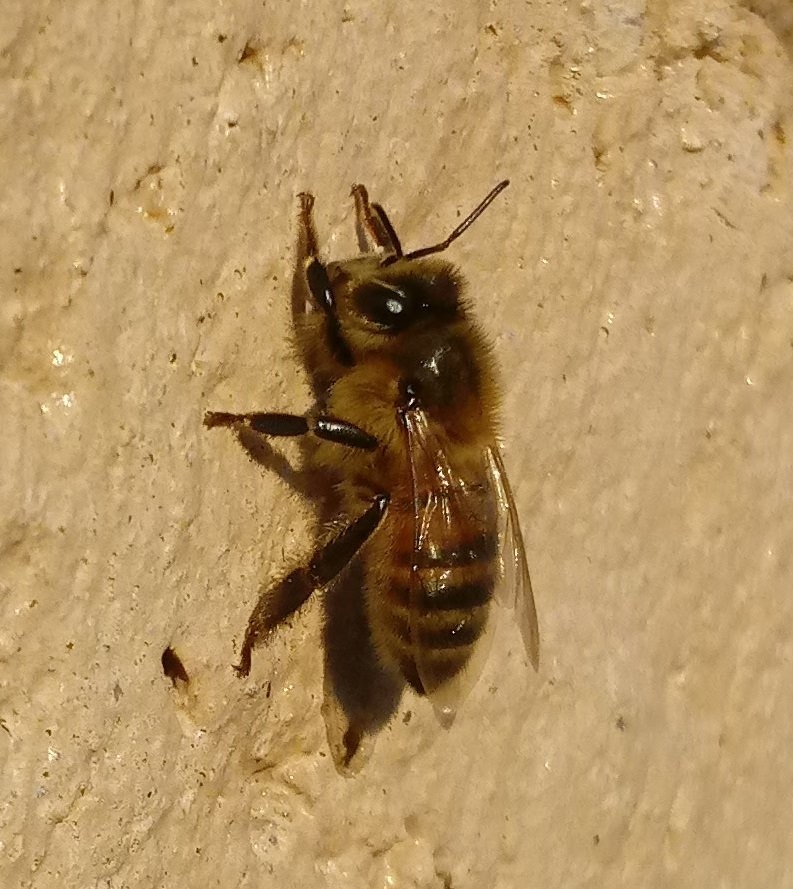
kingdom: Animalia
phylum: Arthropoda
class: Insecta
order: Hymenoptera
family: Apidae
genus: Apis
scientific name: Apis mellifera
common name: Honey bee
